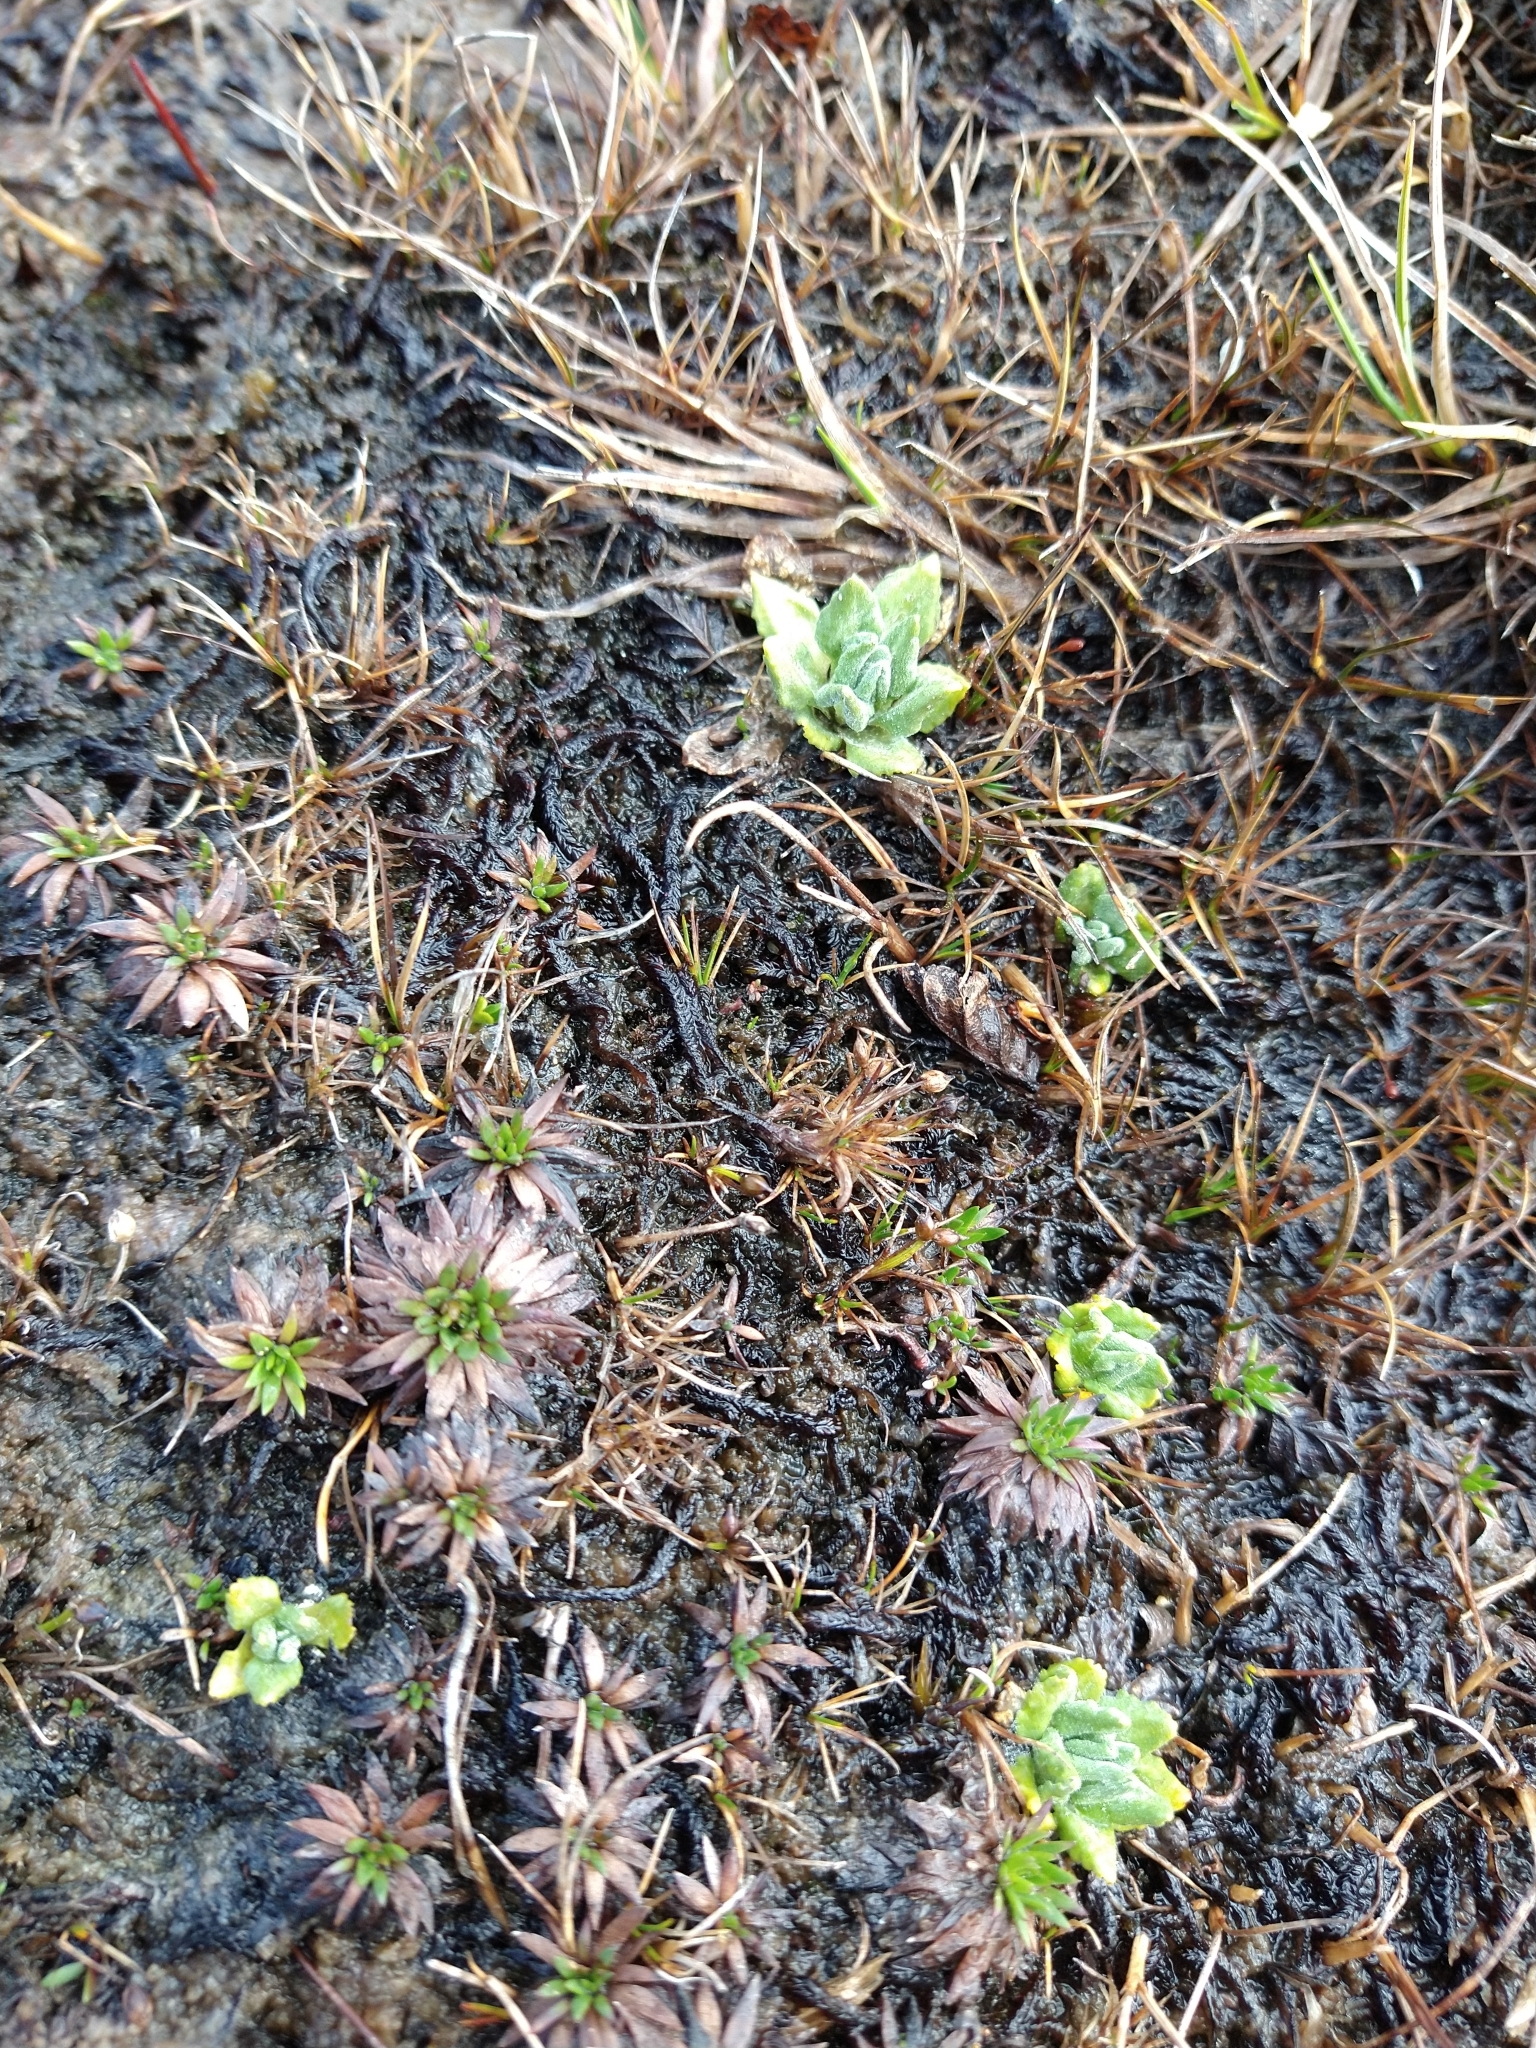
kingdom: Plantae
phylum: Tracheophyta
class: Magnoliopsida
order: Ericales
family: Primulaceae
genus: Primula
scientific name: Primula magellanica
